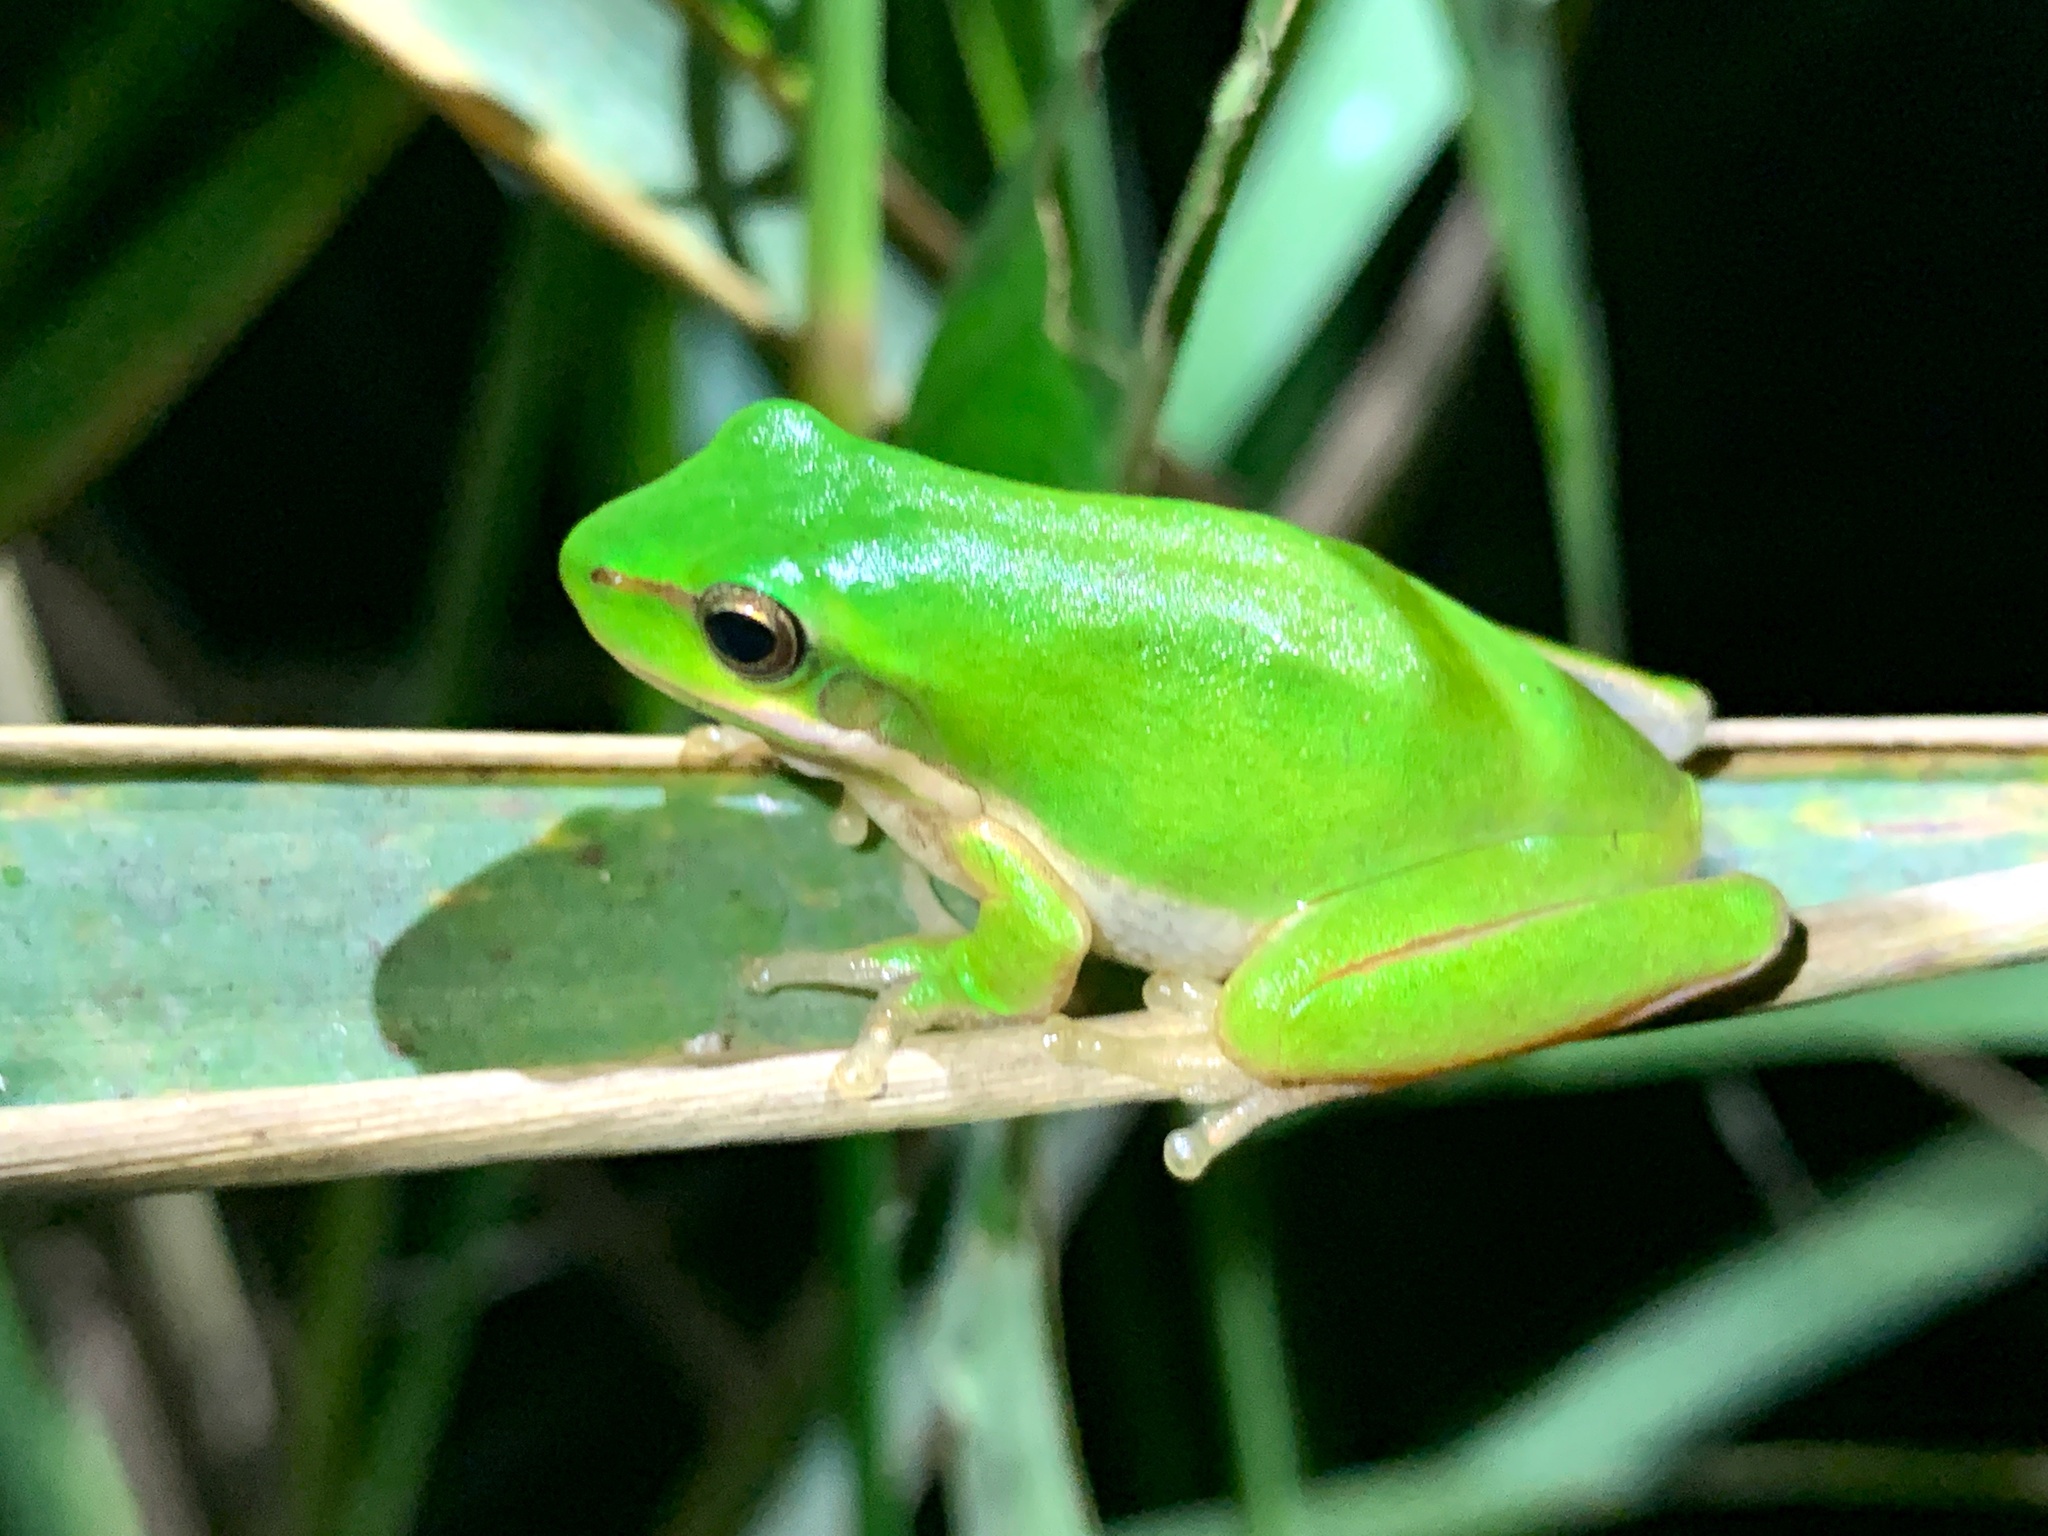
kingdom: Animalia
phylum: Chordata
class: Amphibia
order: Anura
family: Pelodryadidae
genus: Litoria
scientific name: Litoria fallax
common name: Eastern dwarf treefrog
